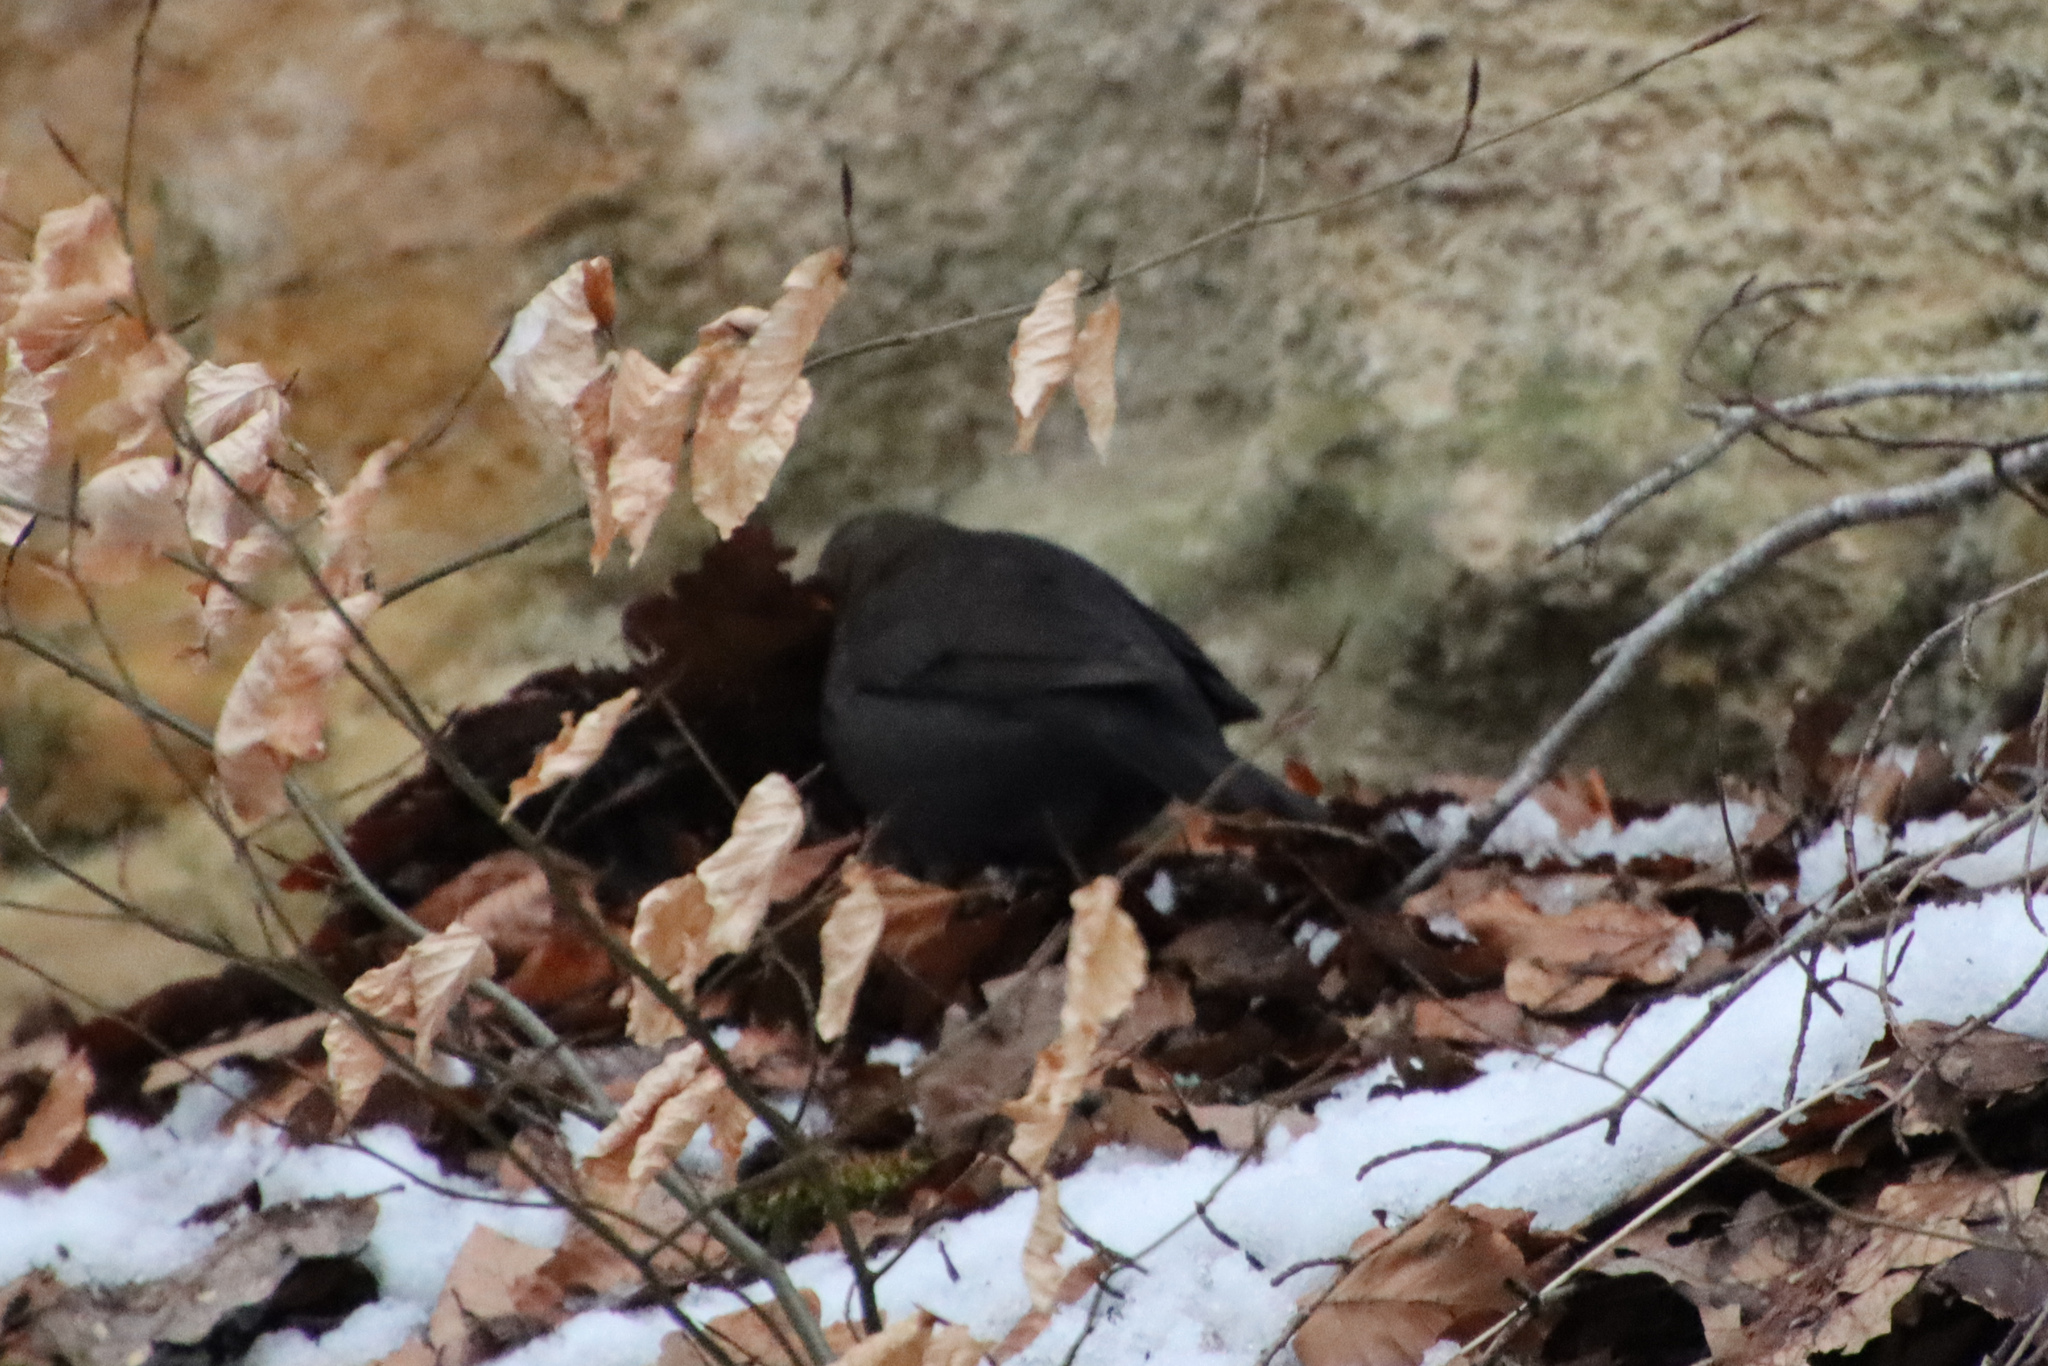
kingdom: Animalia
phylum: Chordata
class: Aves
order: Passeriformes
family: Turdidae
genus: Turdus
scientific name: Turdus merula
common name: Common blackbird
